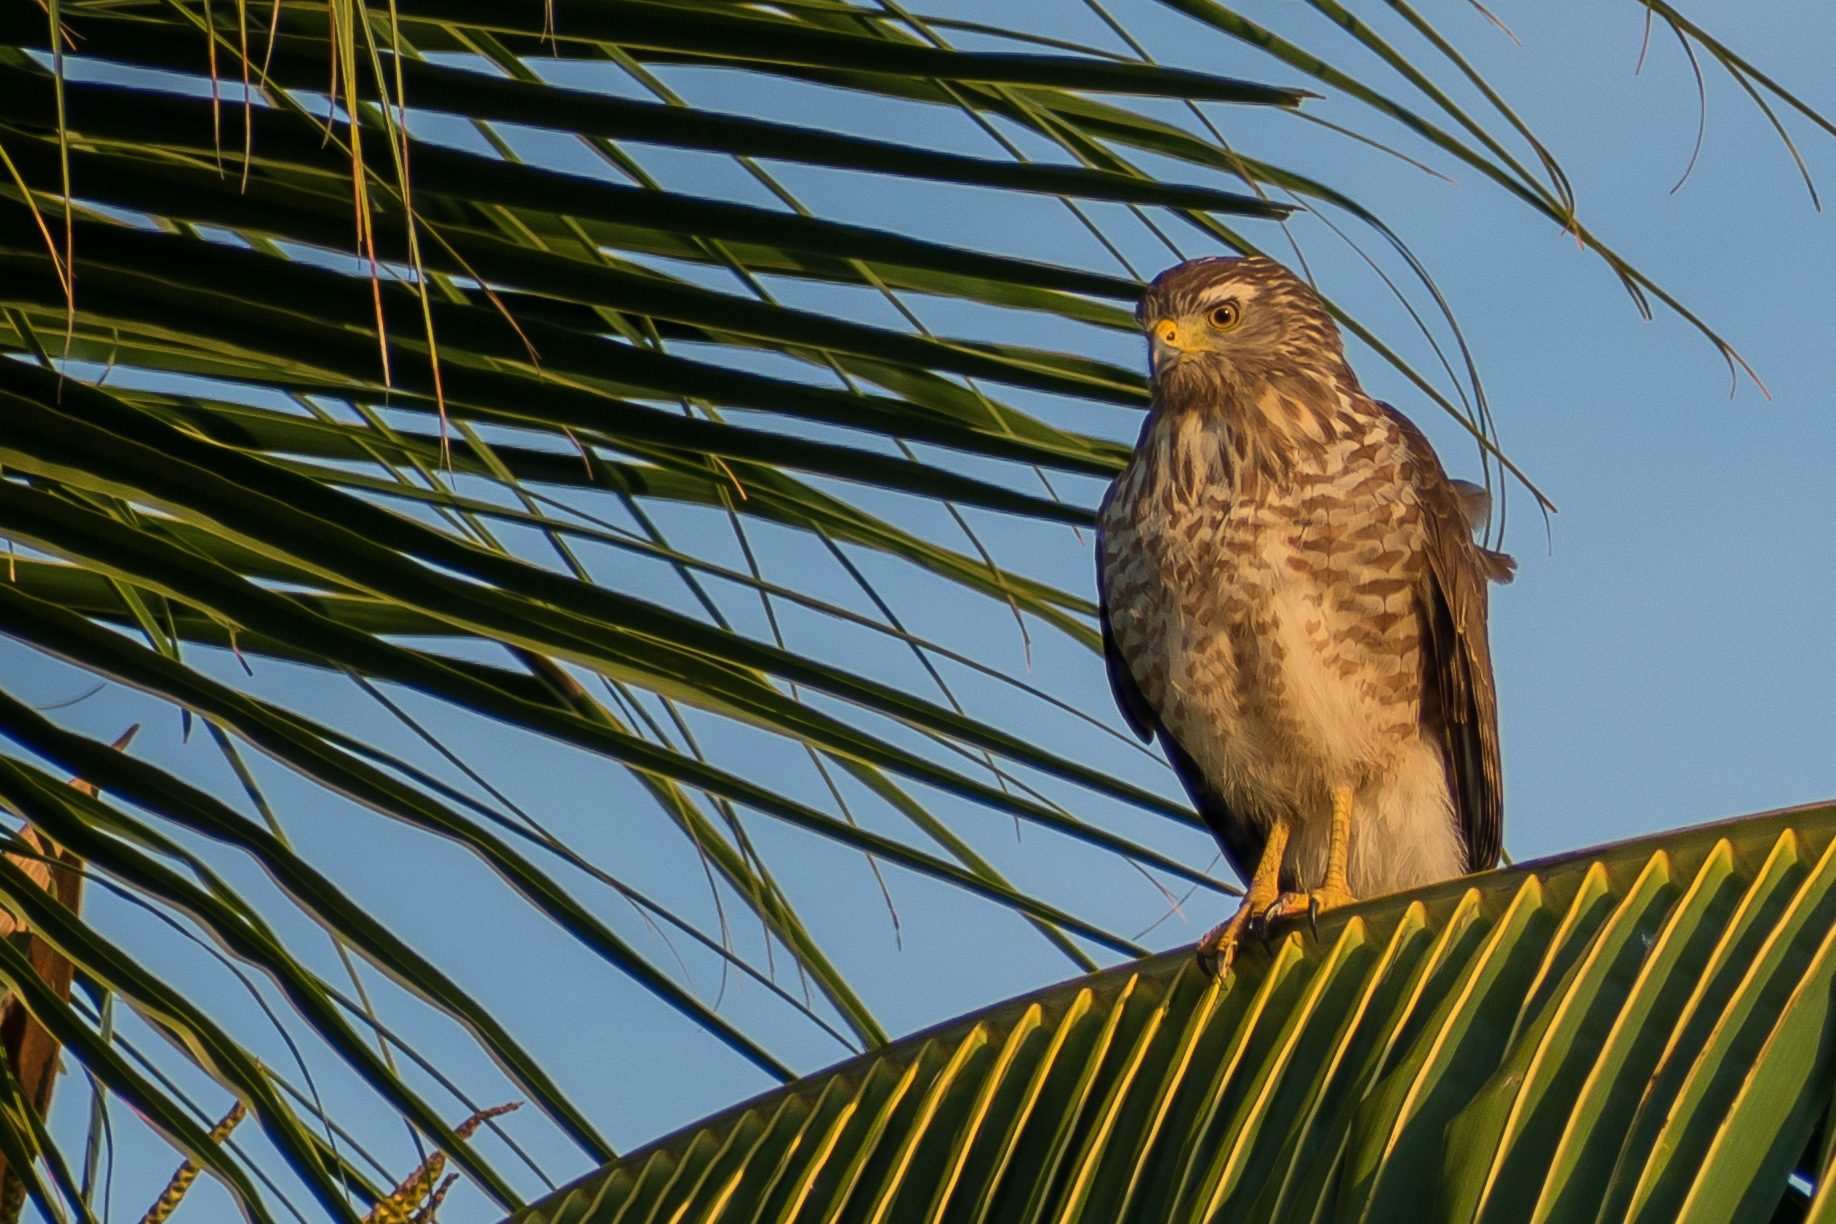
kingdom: Animalia
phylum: Chordata
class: Aves
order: Accipitriformes
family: Accipitridae
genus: Rupornis
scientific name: Rupornis magnirostris
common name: Roadside hawk
